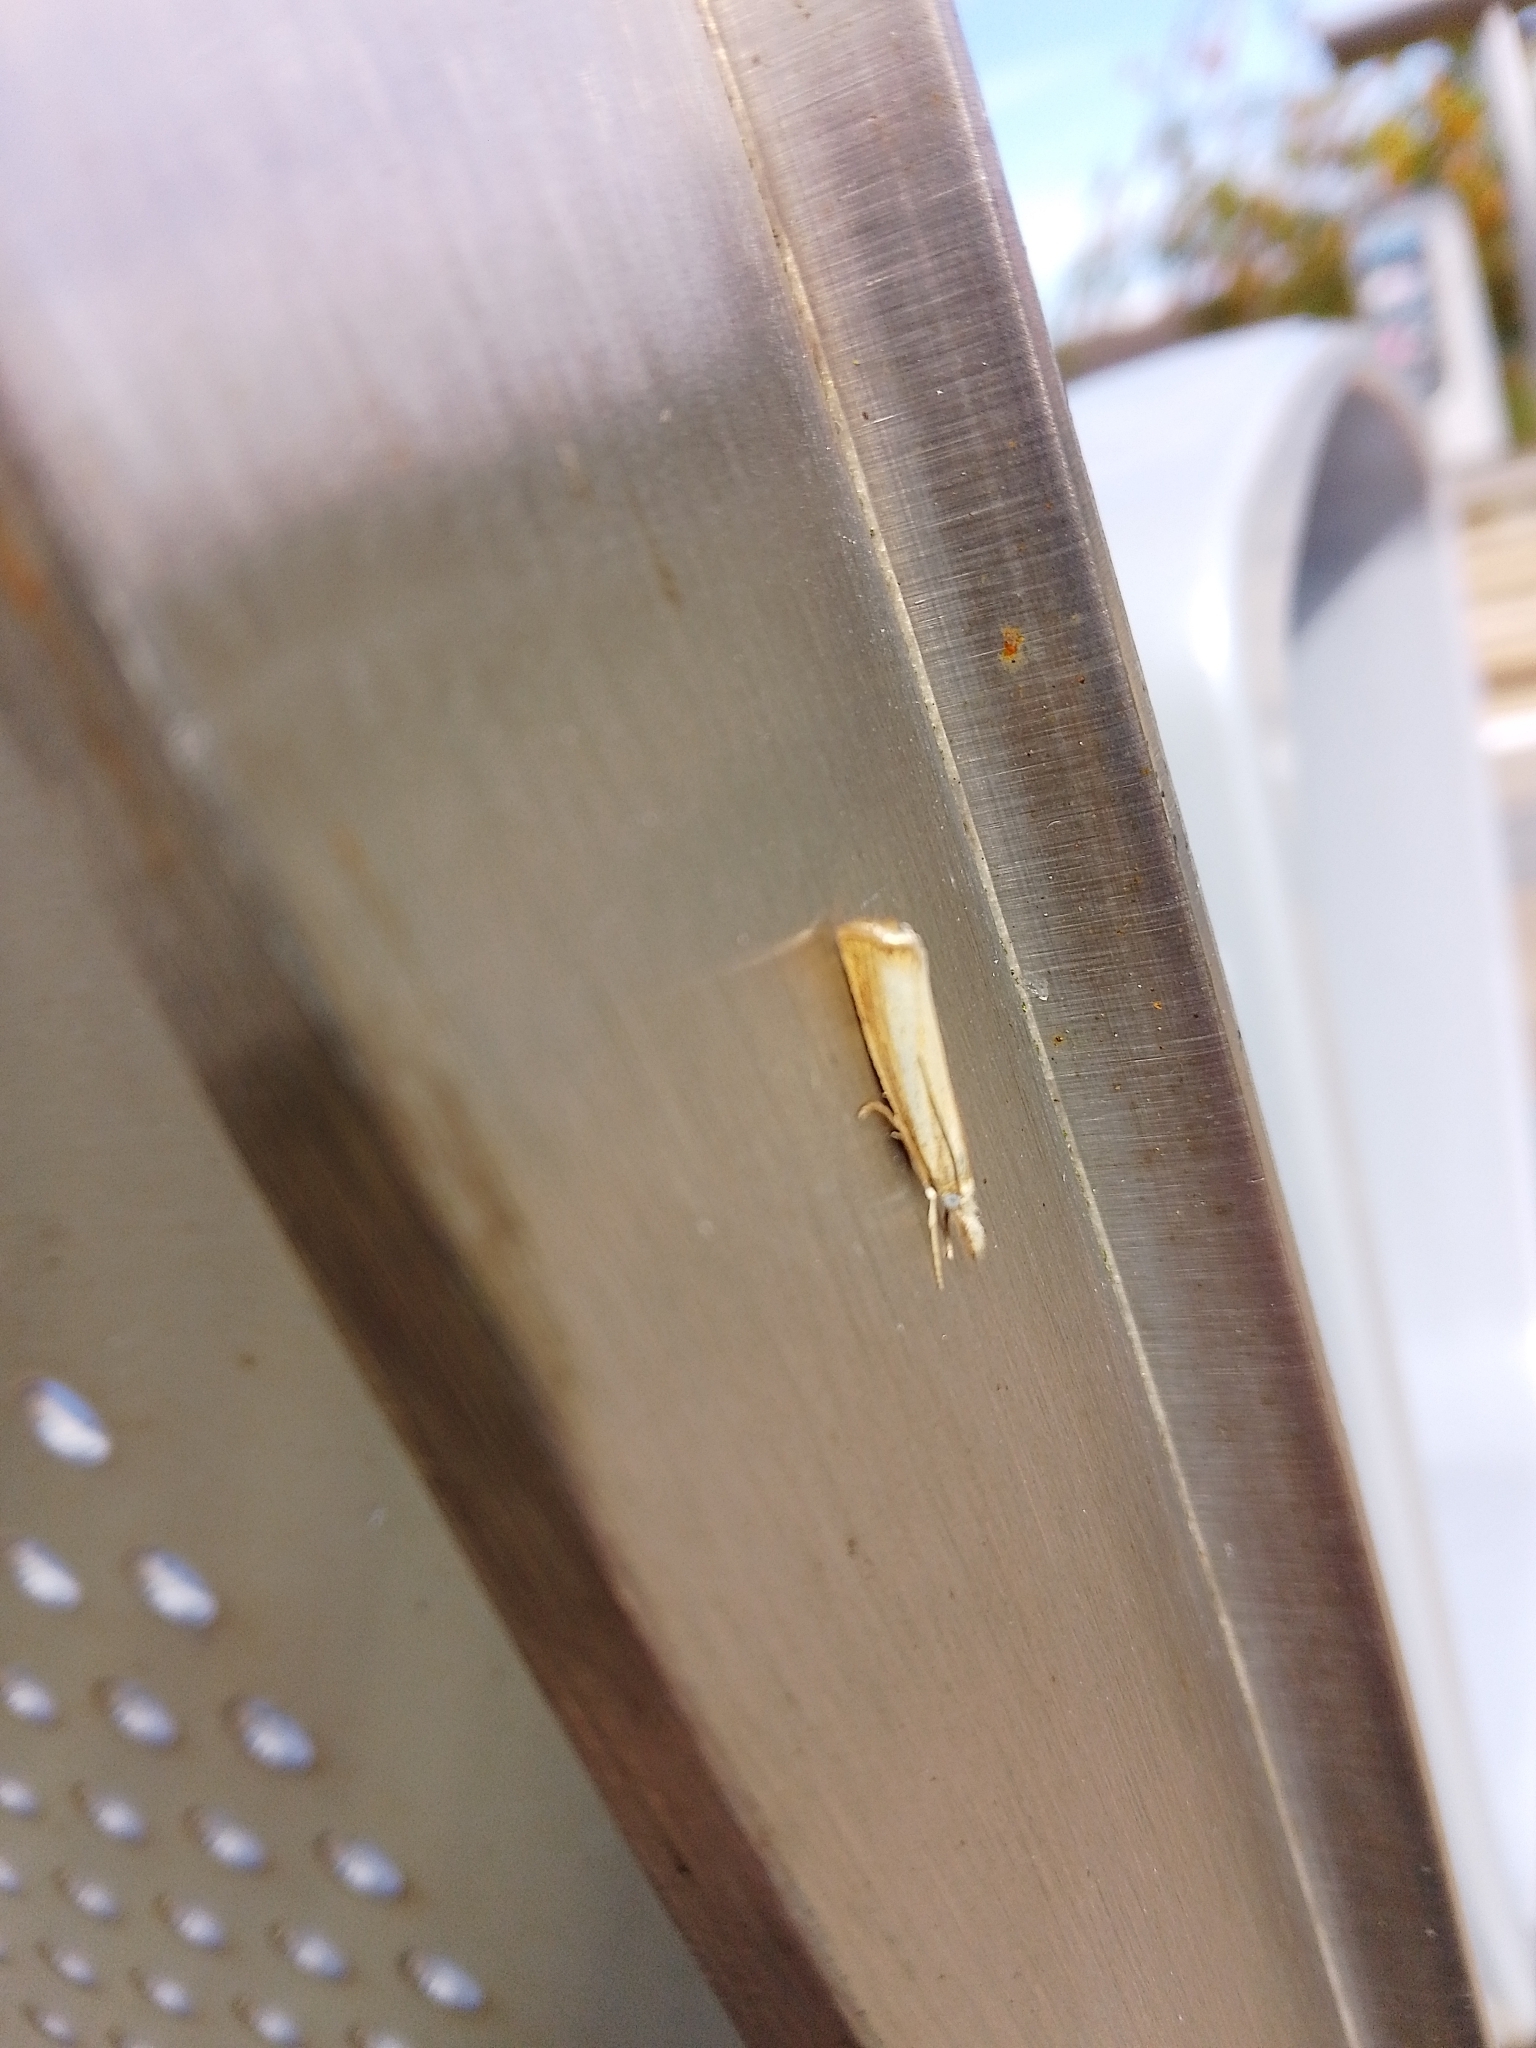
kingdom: Animalia
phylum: Arthropoda
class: Insecta
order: Lepidoptera
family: Crambidae
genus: Agriphila
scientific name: Agriphila straminella
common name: Straw grass-veneer
